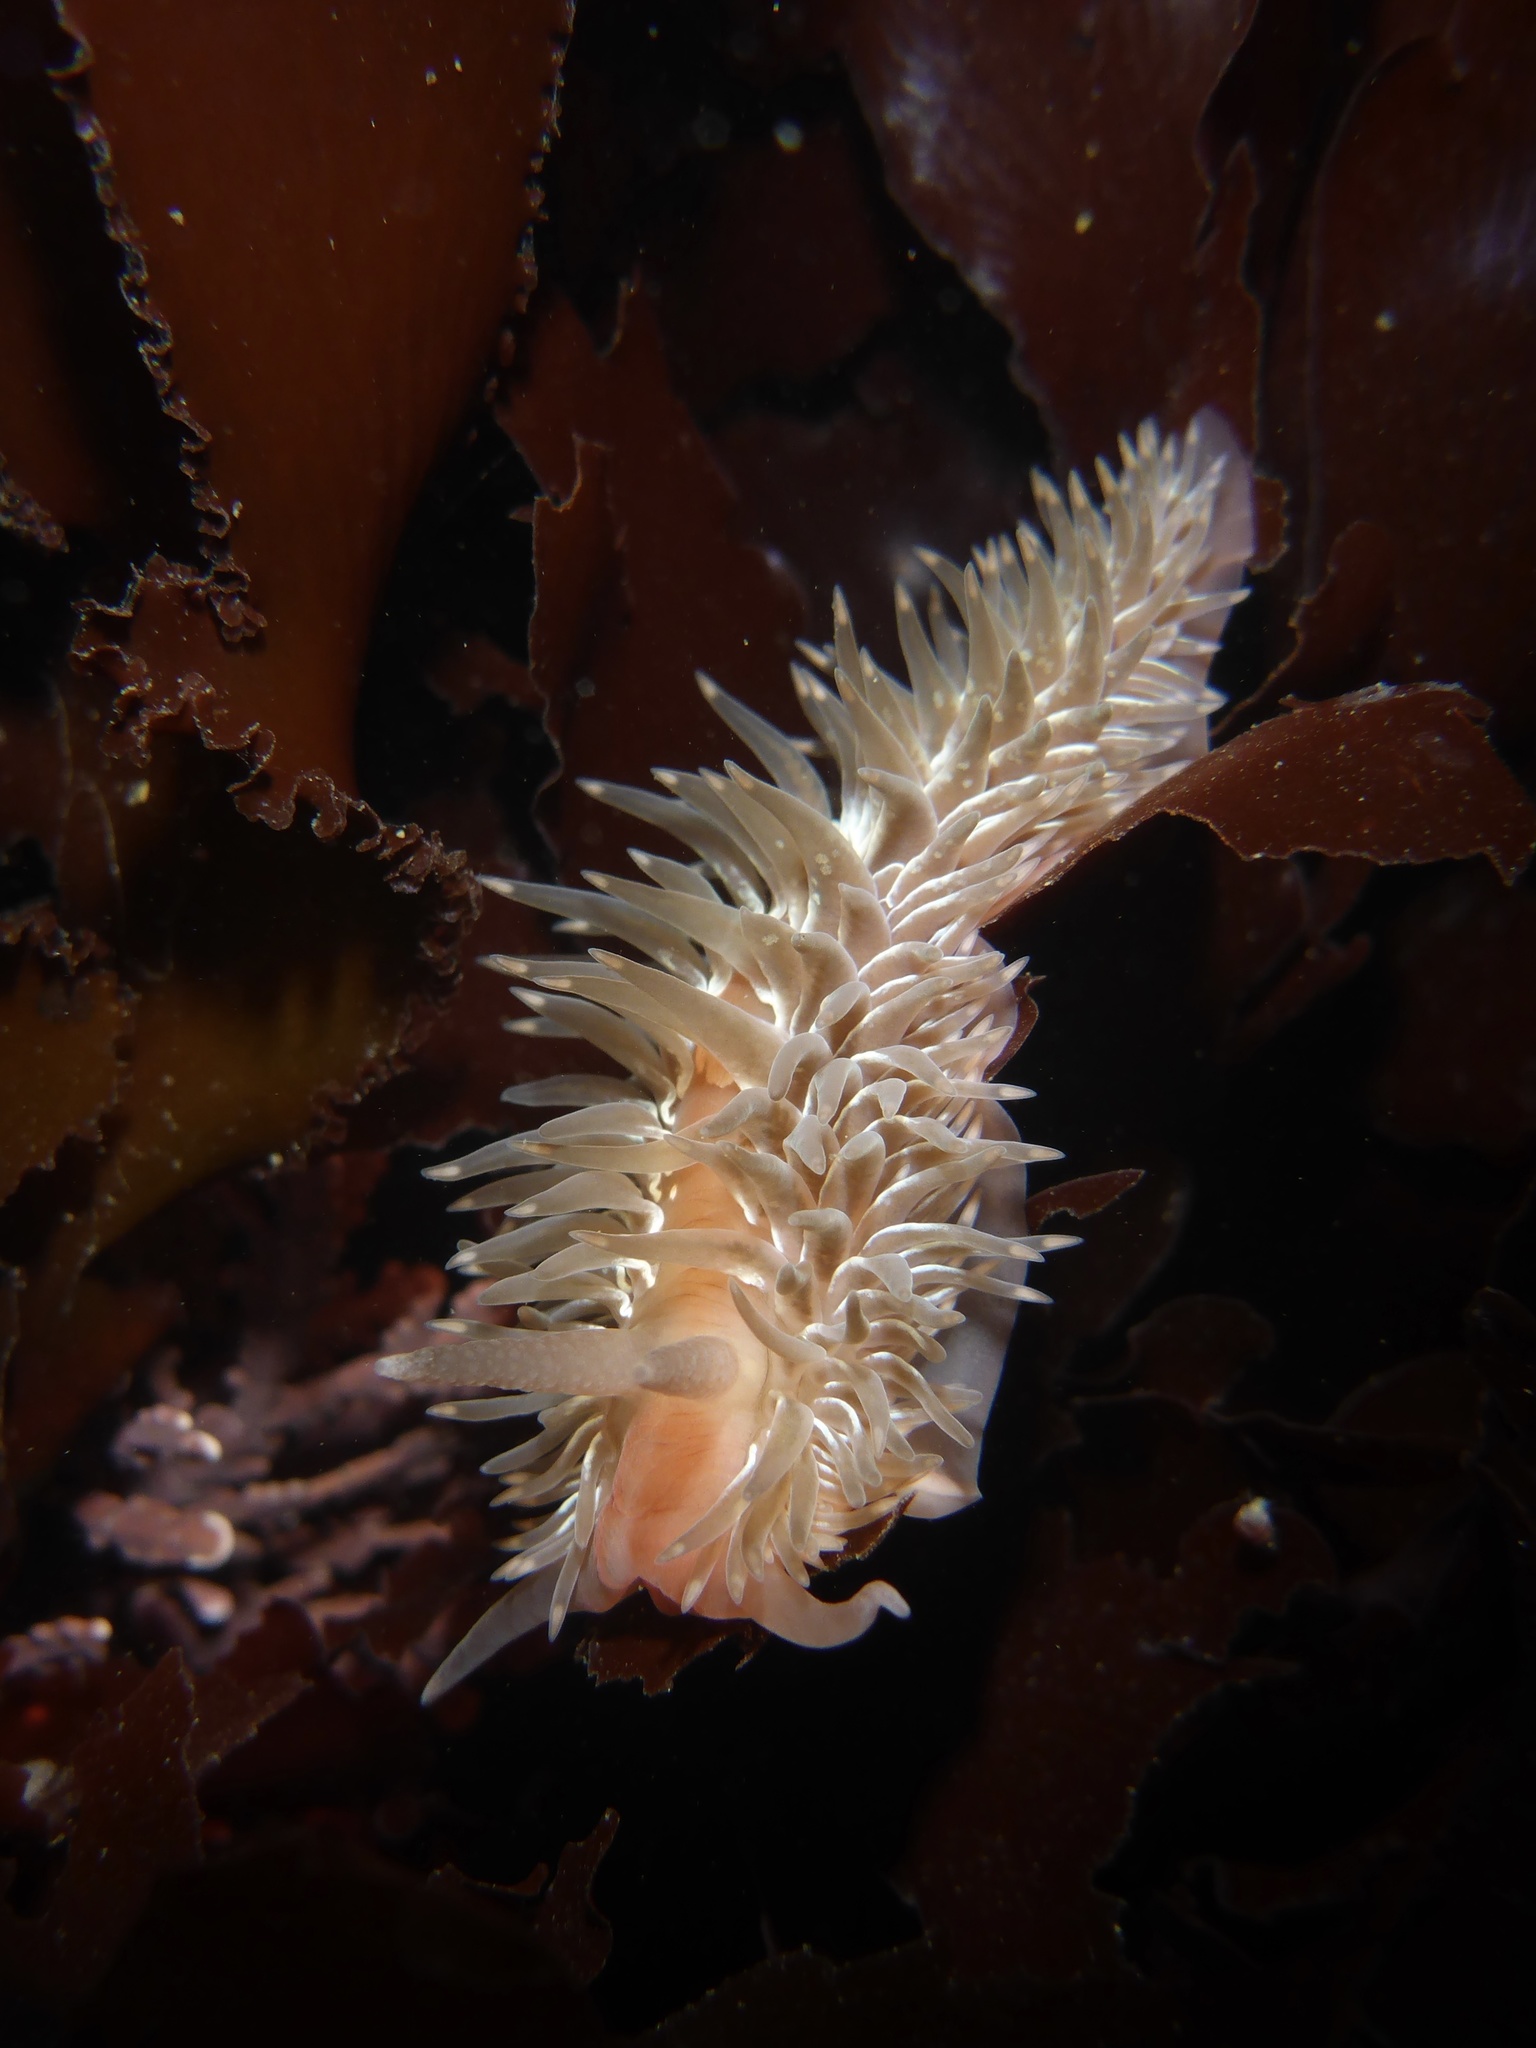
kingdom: Animalia
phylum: Mollusca
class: Gastropoda
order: Nudibranchia
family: Aeolidiidae
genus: Aeolidia
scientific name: Aeolidia loui
